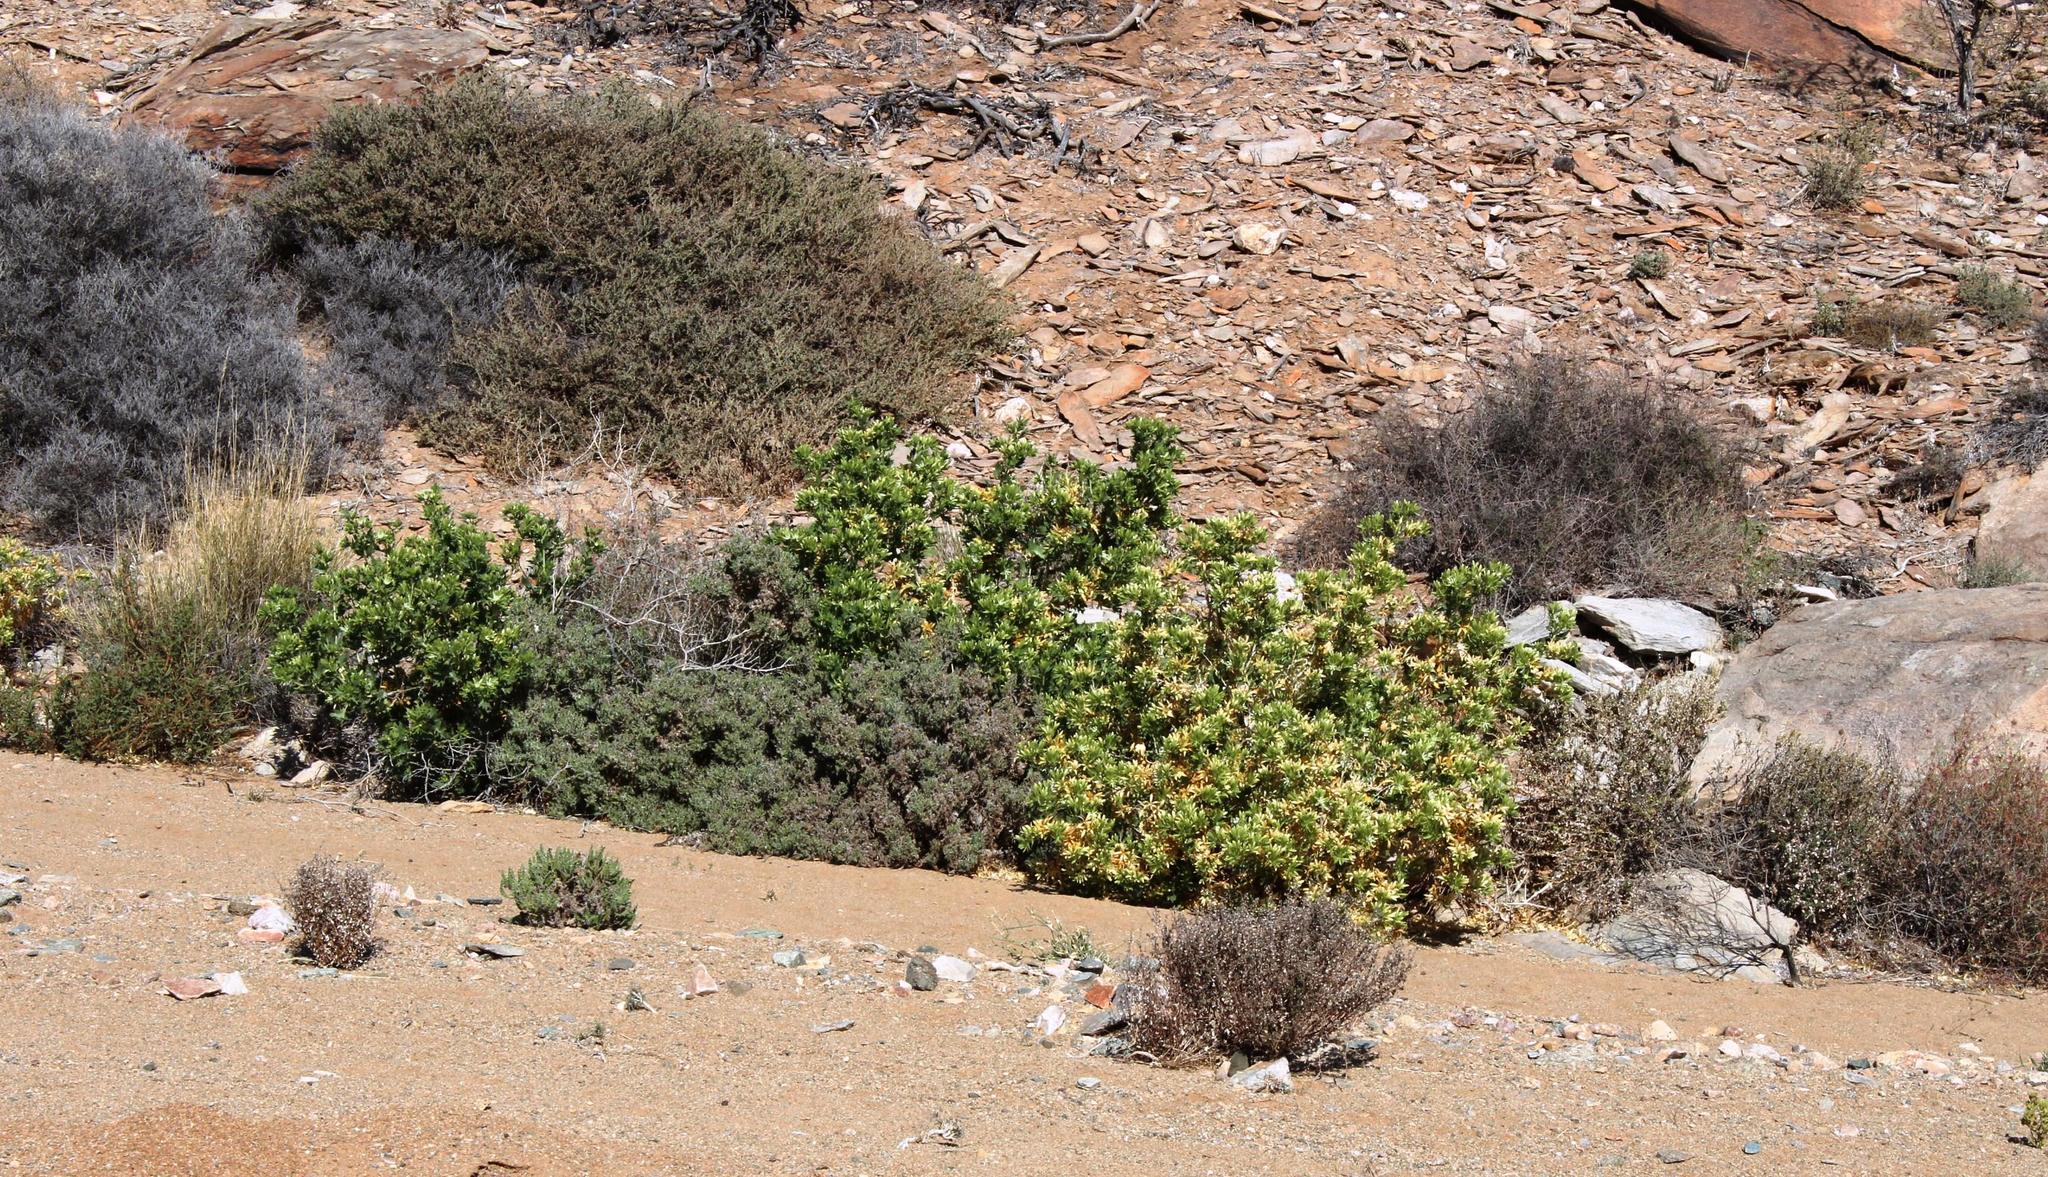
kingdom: Plantae
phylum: Tracheophyta
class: Magnoliopsida
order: Cornales
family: Loasaceae
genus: Kissenia
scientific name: Kissenia capensis
